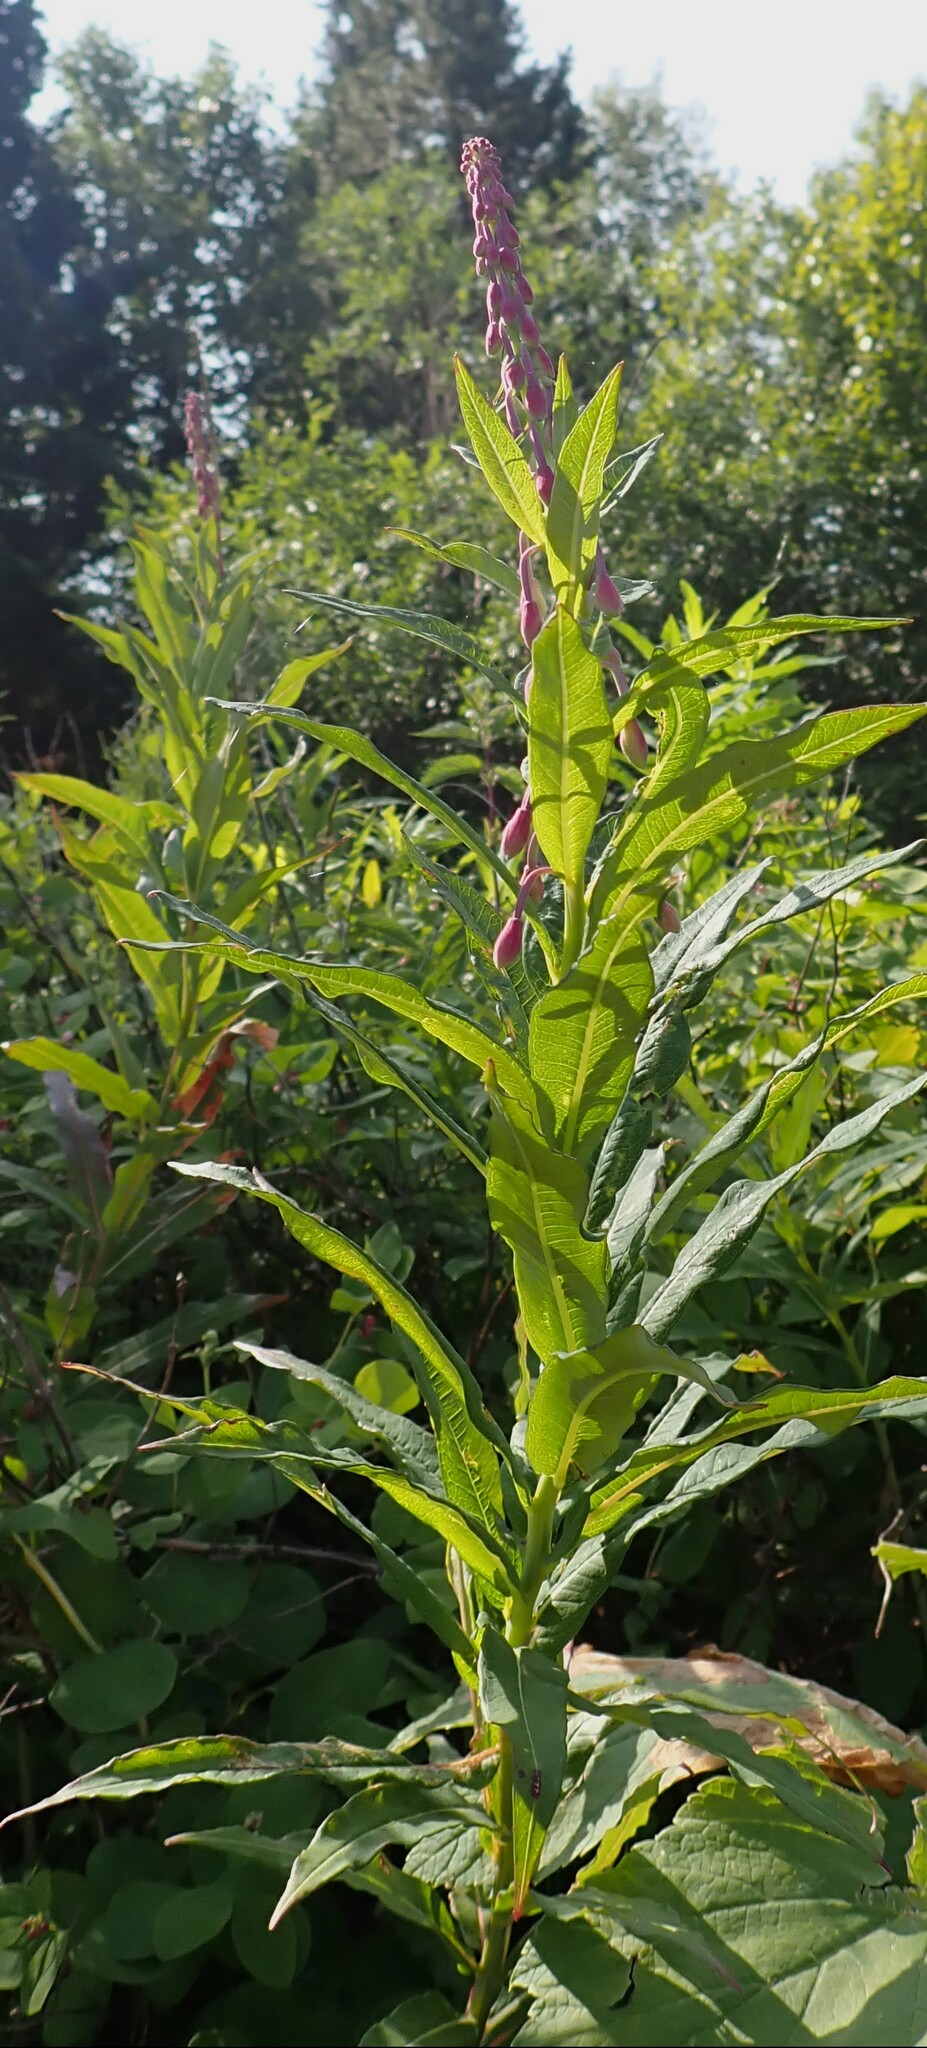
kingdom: Plantae
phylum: Tracheophyta
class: Magnoliopsida
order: Myrtales
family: Onagraceae
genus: Chamaenerion
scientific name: Chamaenerion angustifolium
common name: Fireweed
